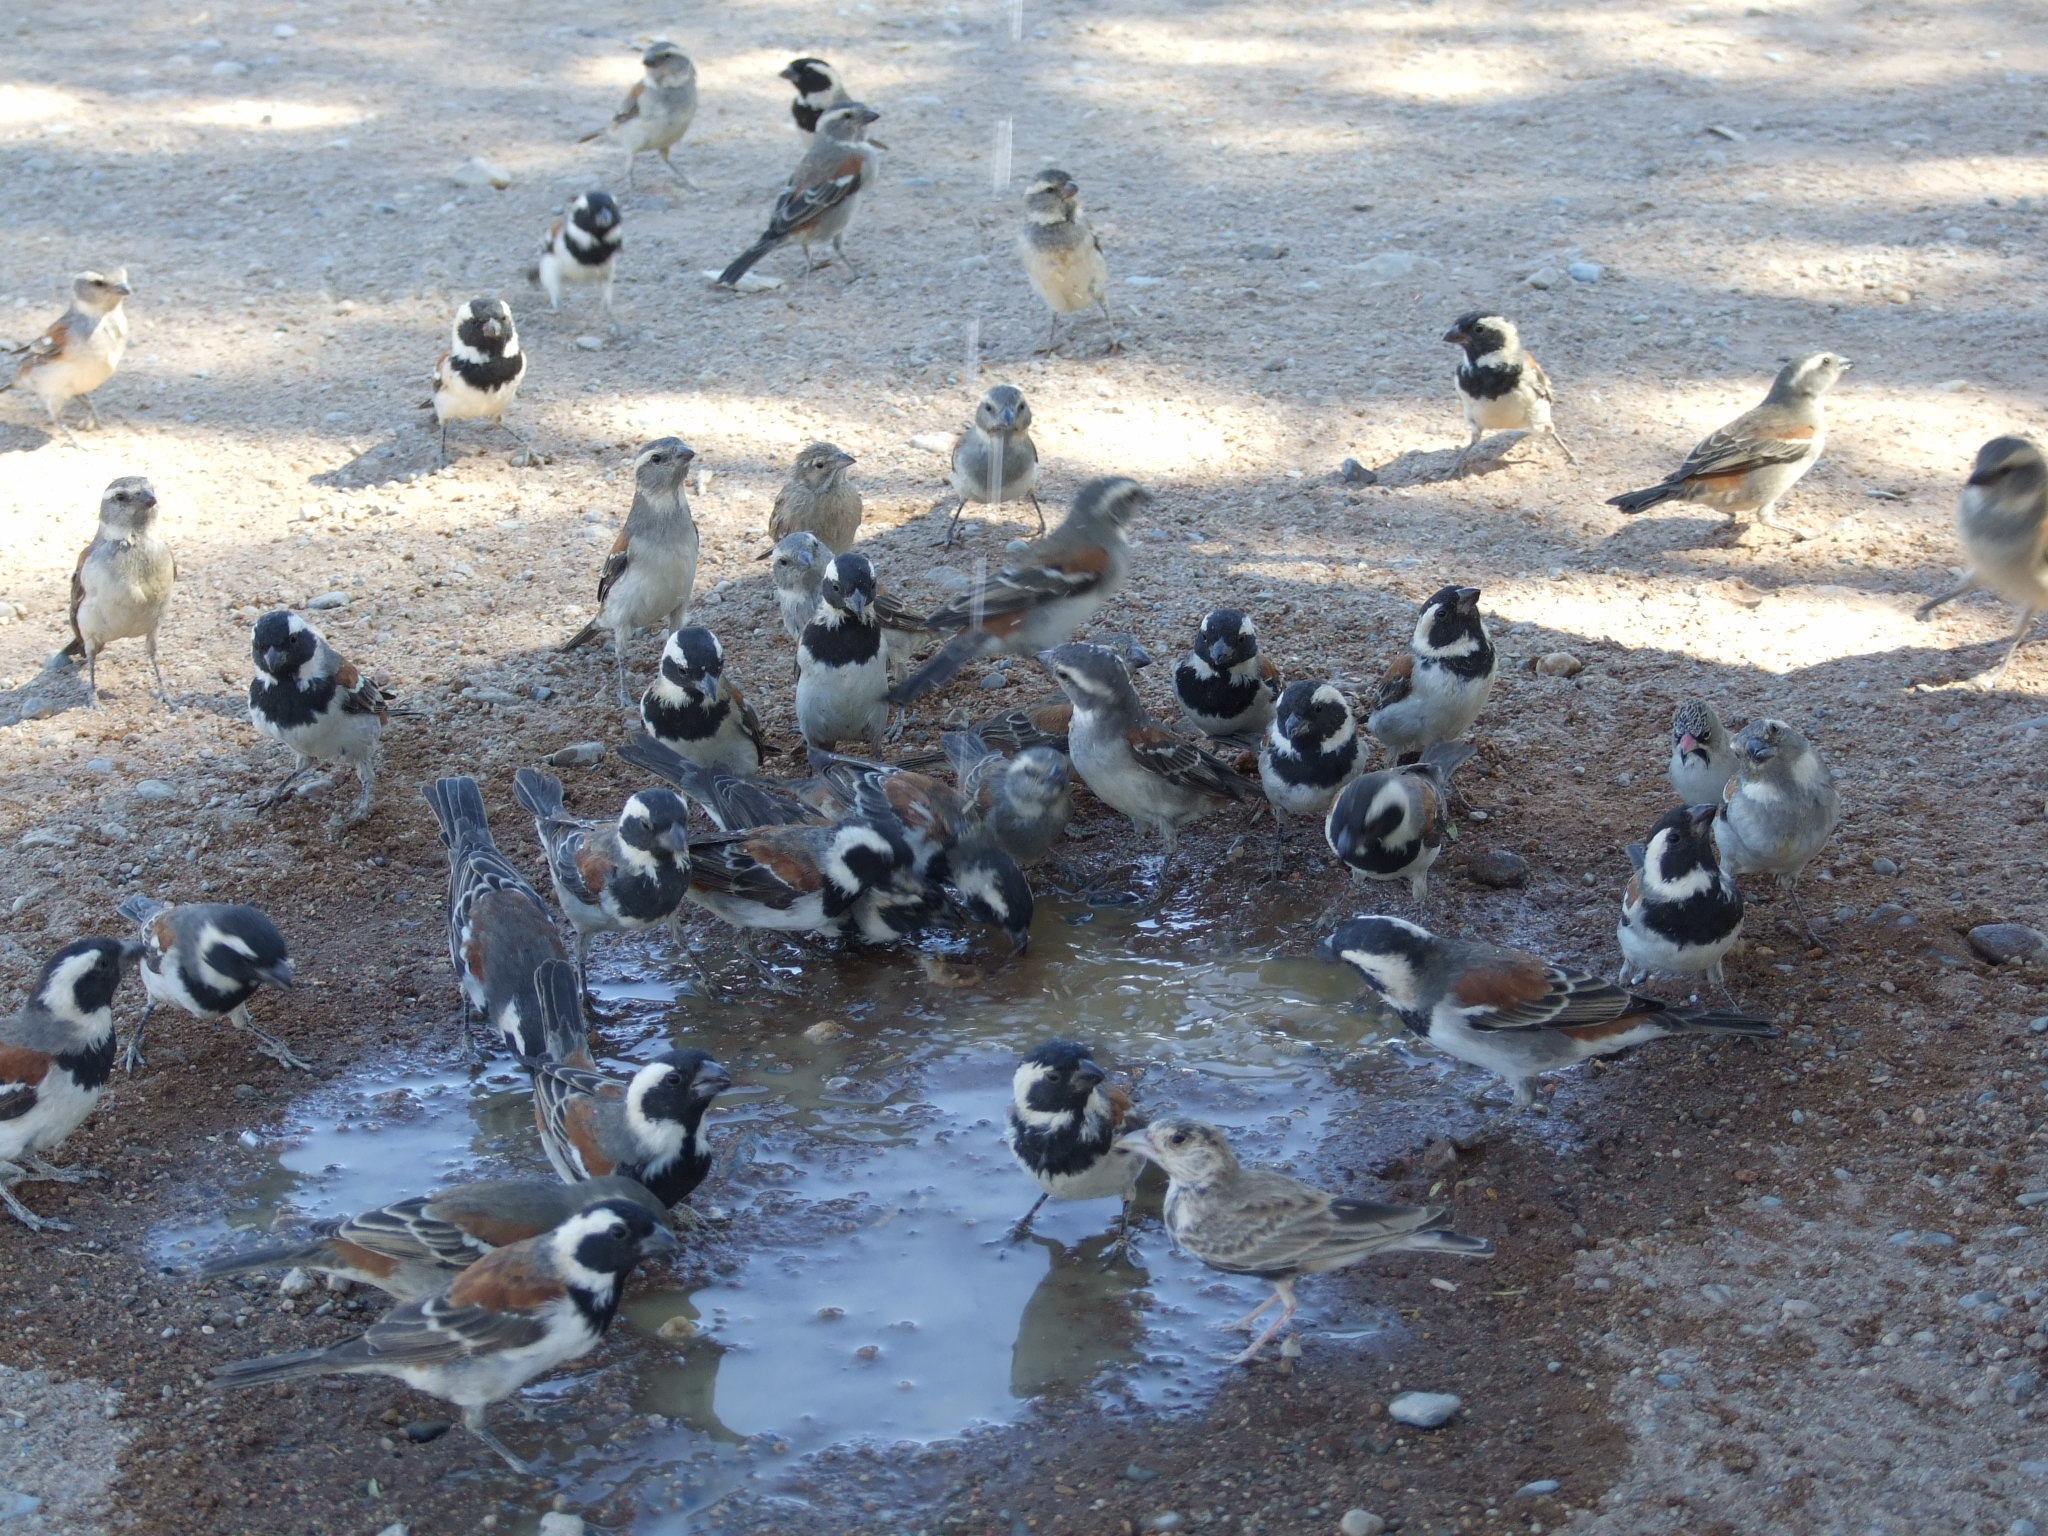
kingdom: Animalia
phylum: Chordata
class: Aves
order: Passeriformes
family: Passeridae
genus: Passer
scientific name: Passer melanurus
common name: Cape sparrow
